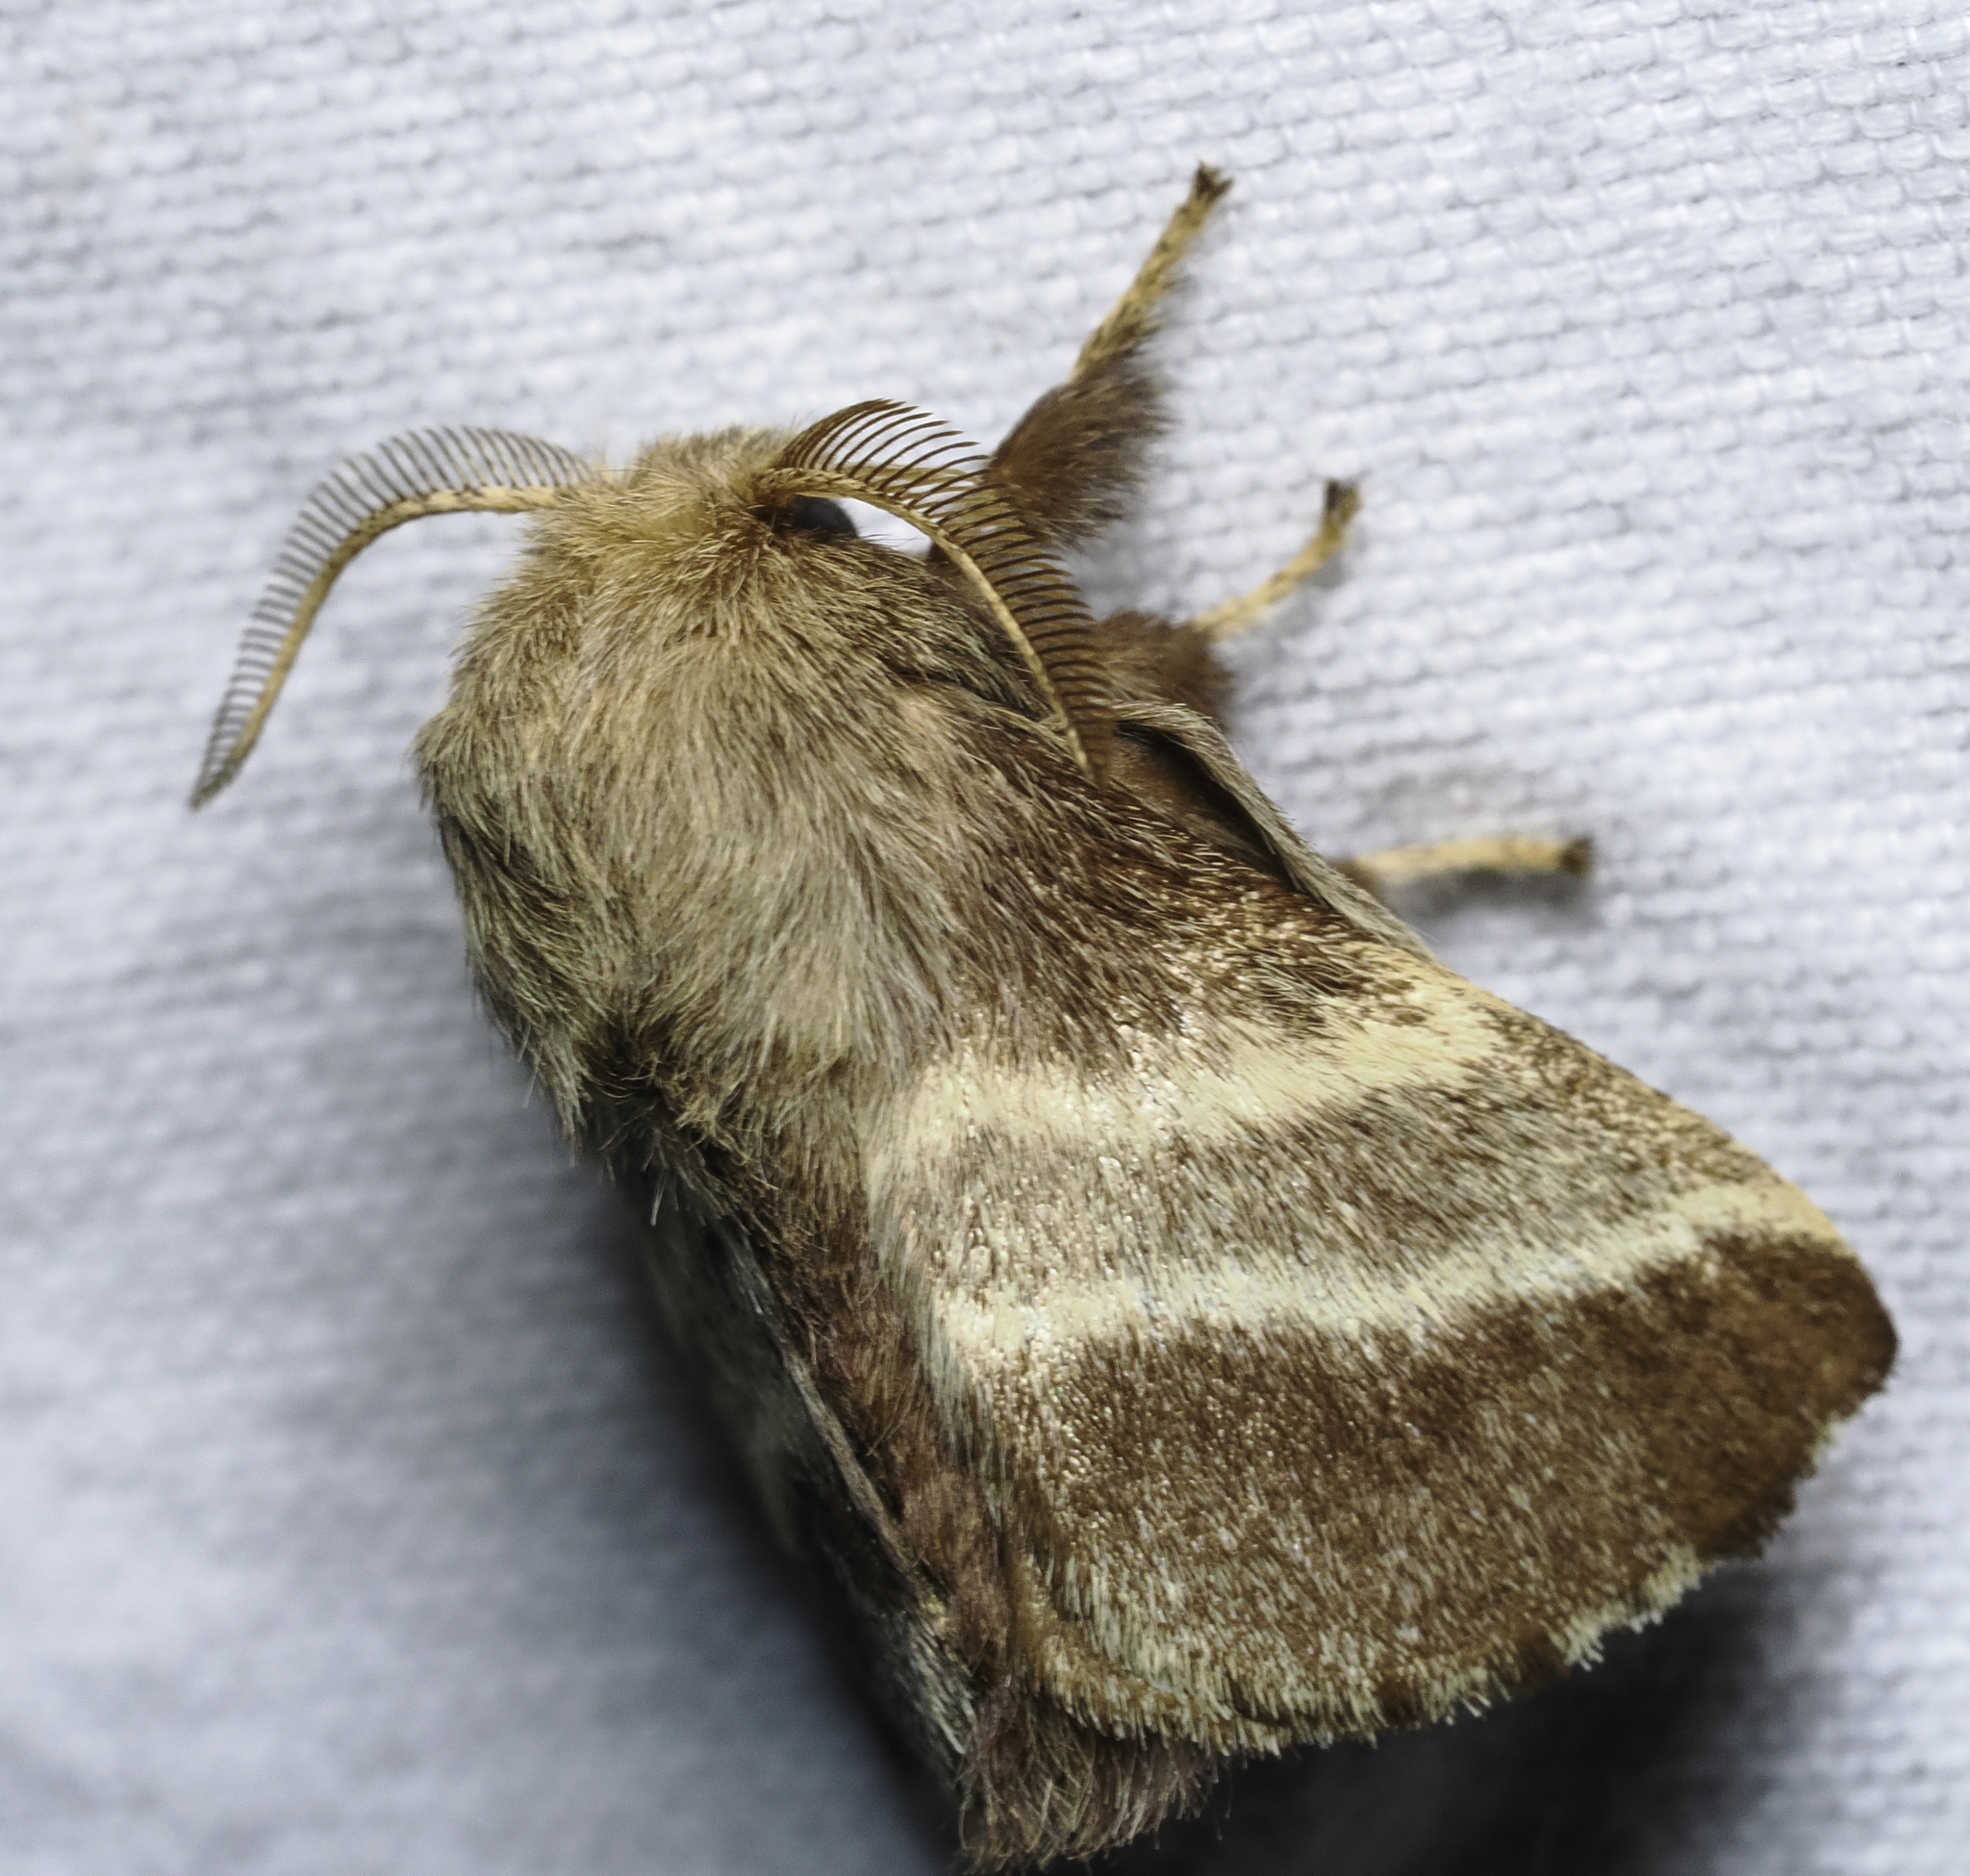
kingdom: Animalia
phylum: Arthropoda
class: Insecta
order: Lepidoptera
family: Lasiocampidae
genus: Malacosoma
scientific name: Malacosoma americana
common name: Eastern tent caterpillar moth
